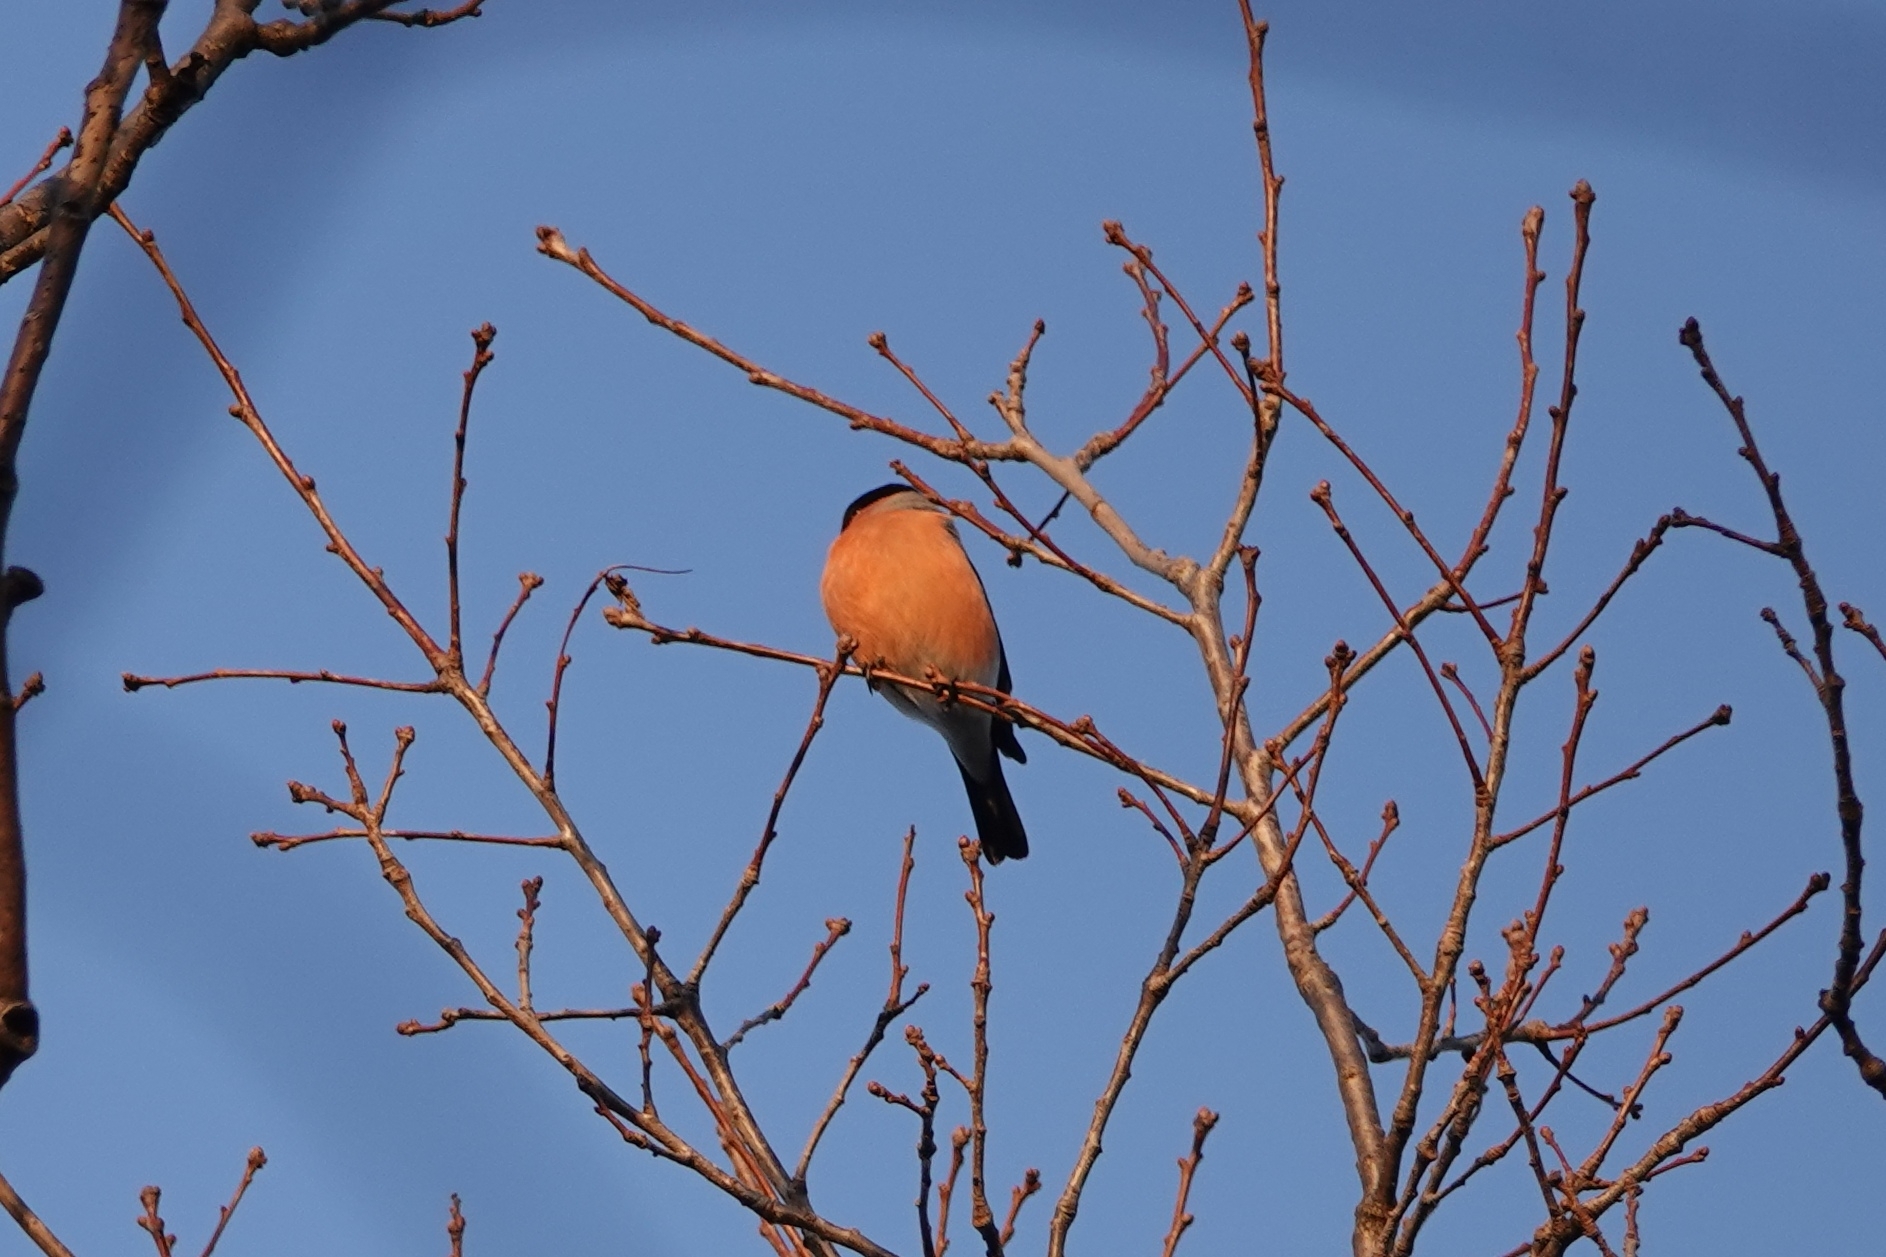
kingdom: Animalia
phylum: Chordata
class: Aves
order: Passeriformes
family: Fringillidae
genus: Pyrrhula
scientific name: Pyrrhula pyrrhula
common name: Eurasian bullfinch
